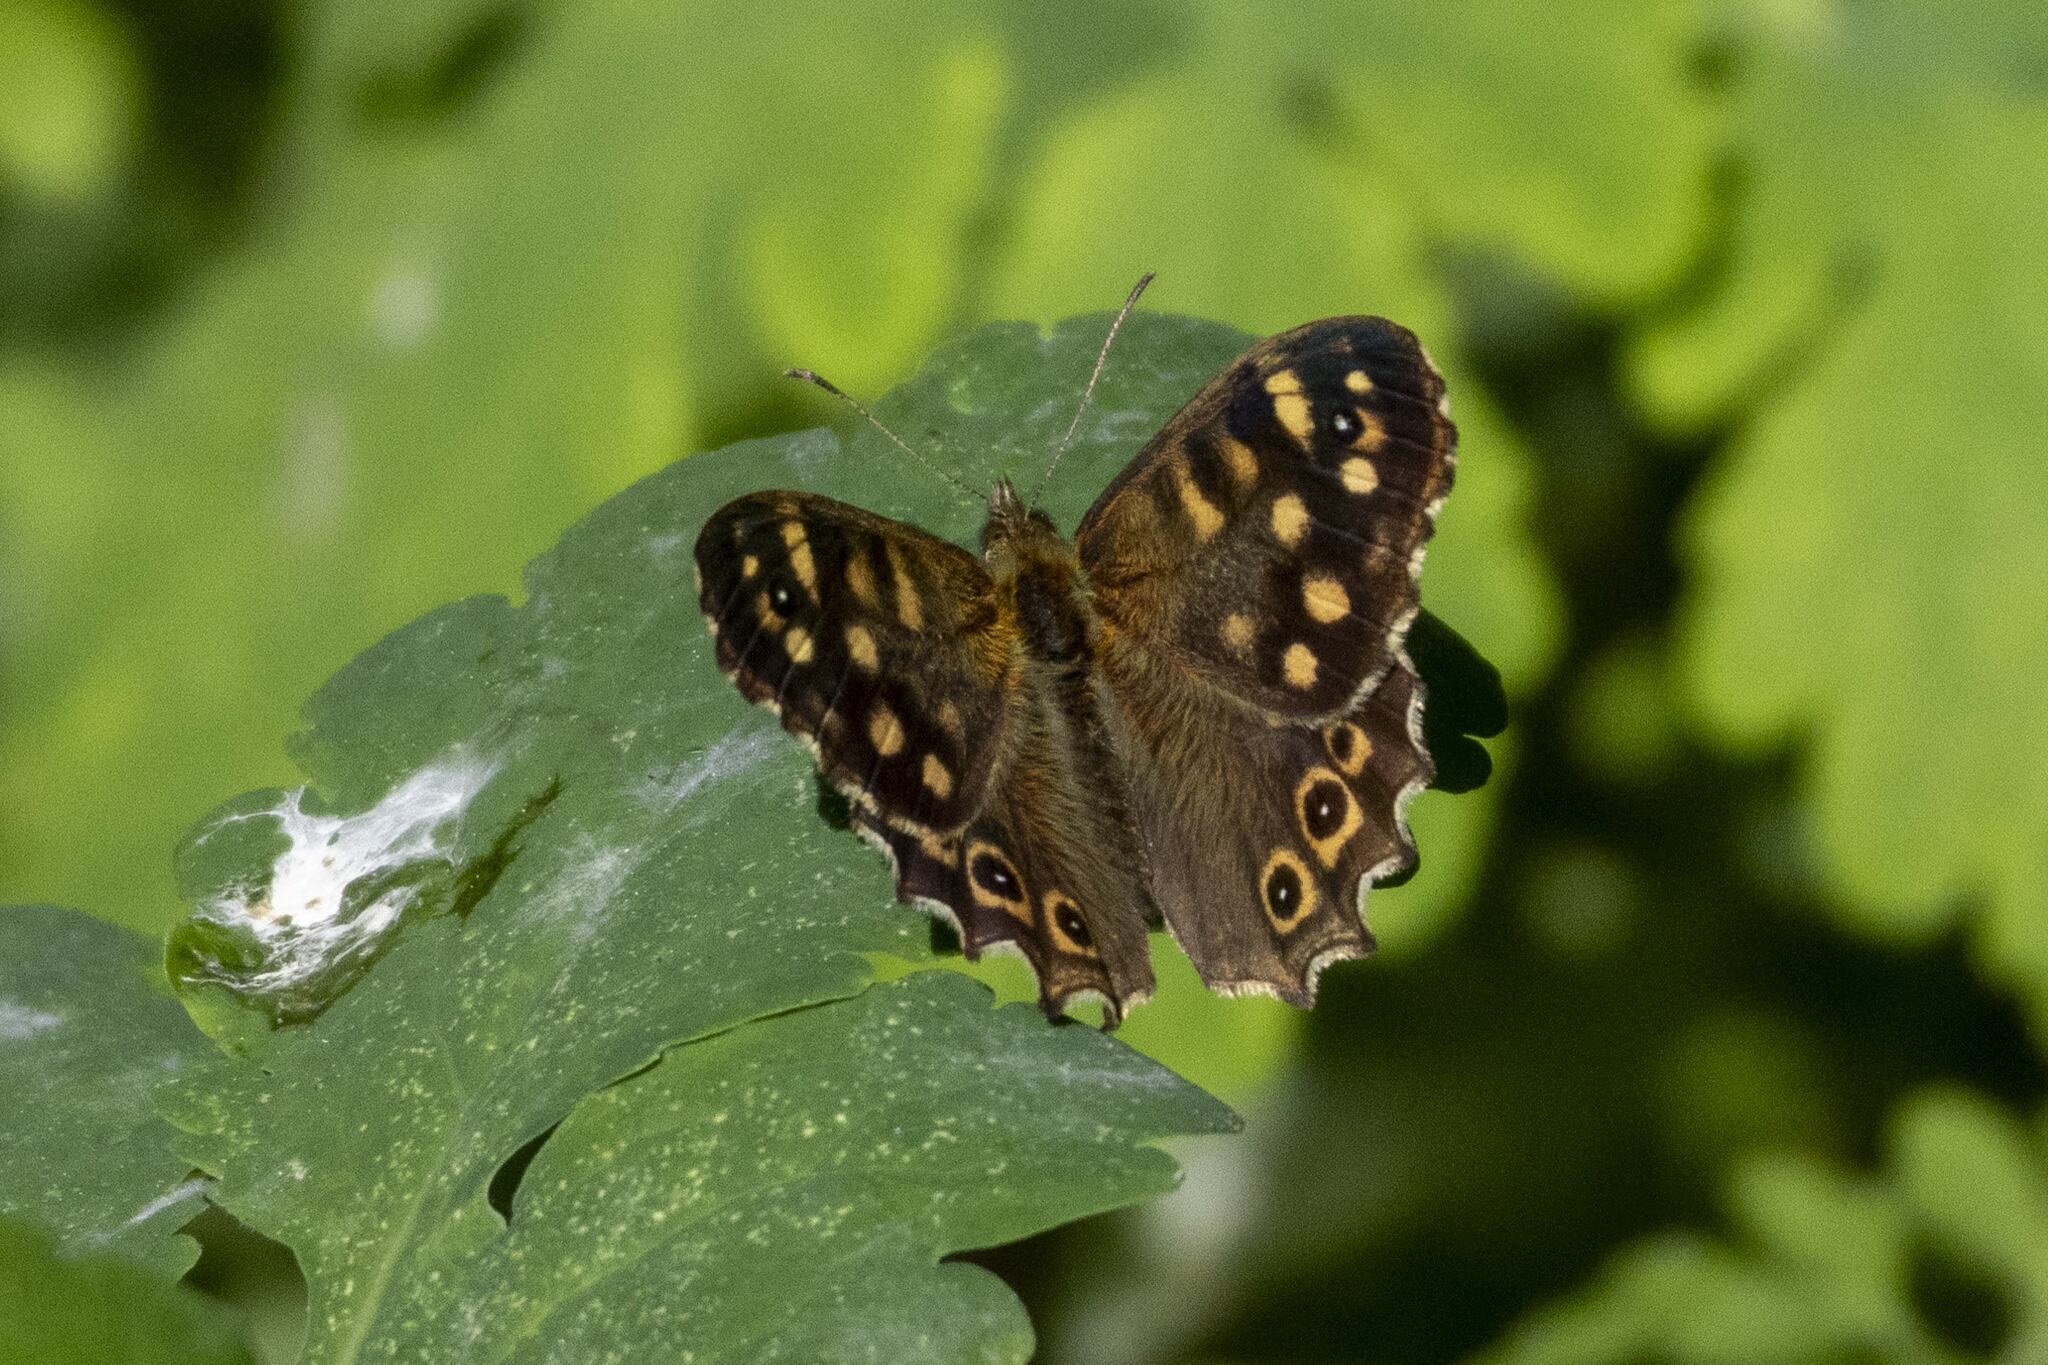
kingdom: Animalia
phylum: Arthropoda
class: Insecta
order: Lepidoptera
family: Nymphalidae
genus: Pararge
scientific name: Pararge aegeria
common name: Speckled wood
